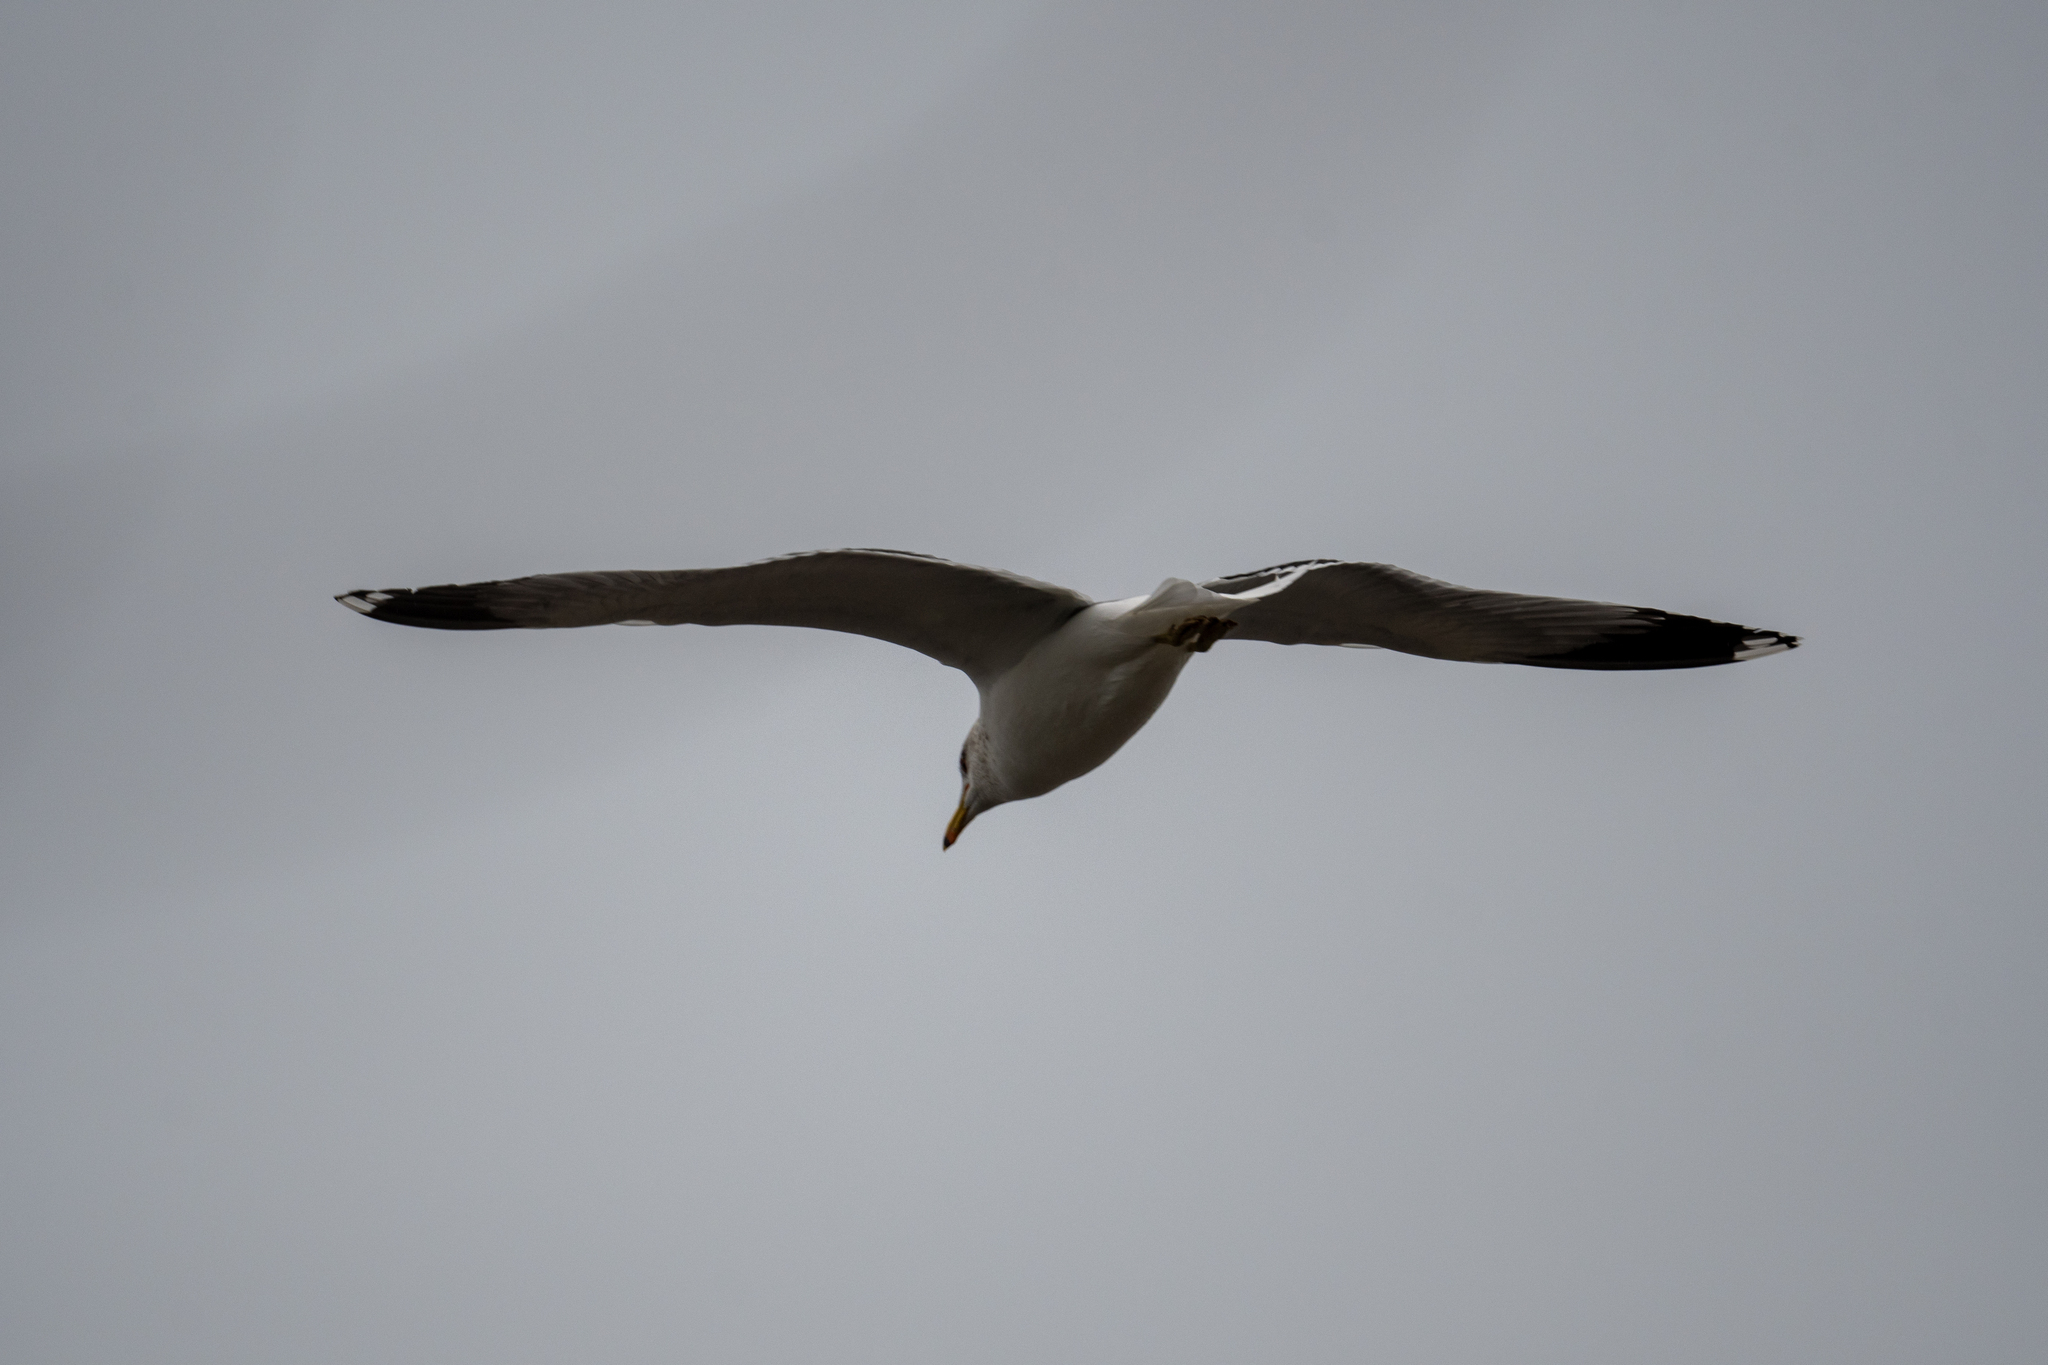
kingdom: Animalia
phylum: Chordata
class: Aves
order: Charadriiformes
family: Laridae
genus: Larus
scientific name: Larus californicus
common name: California gull
